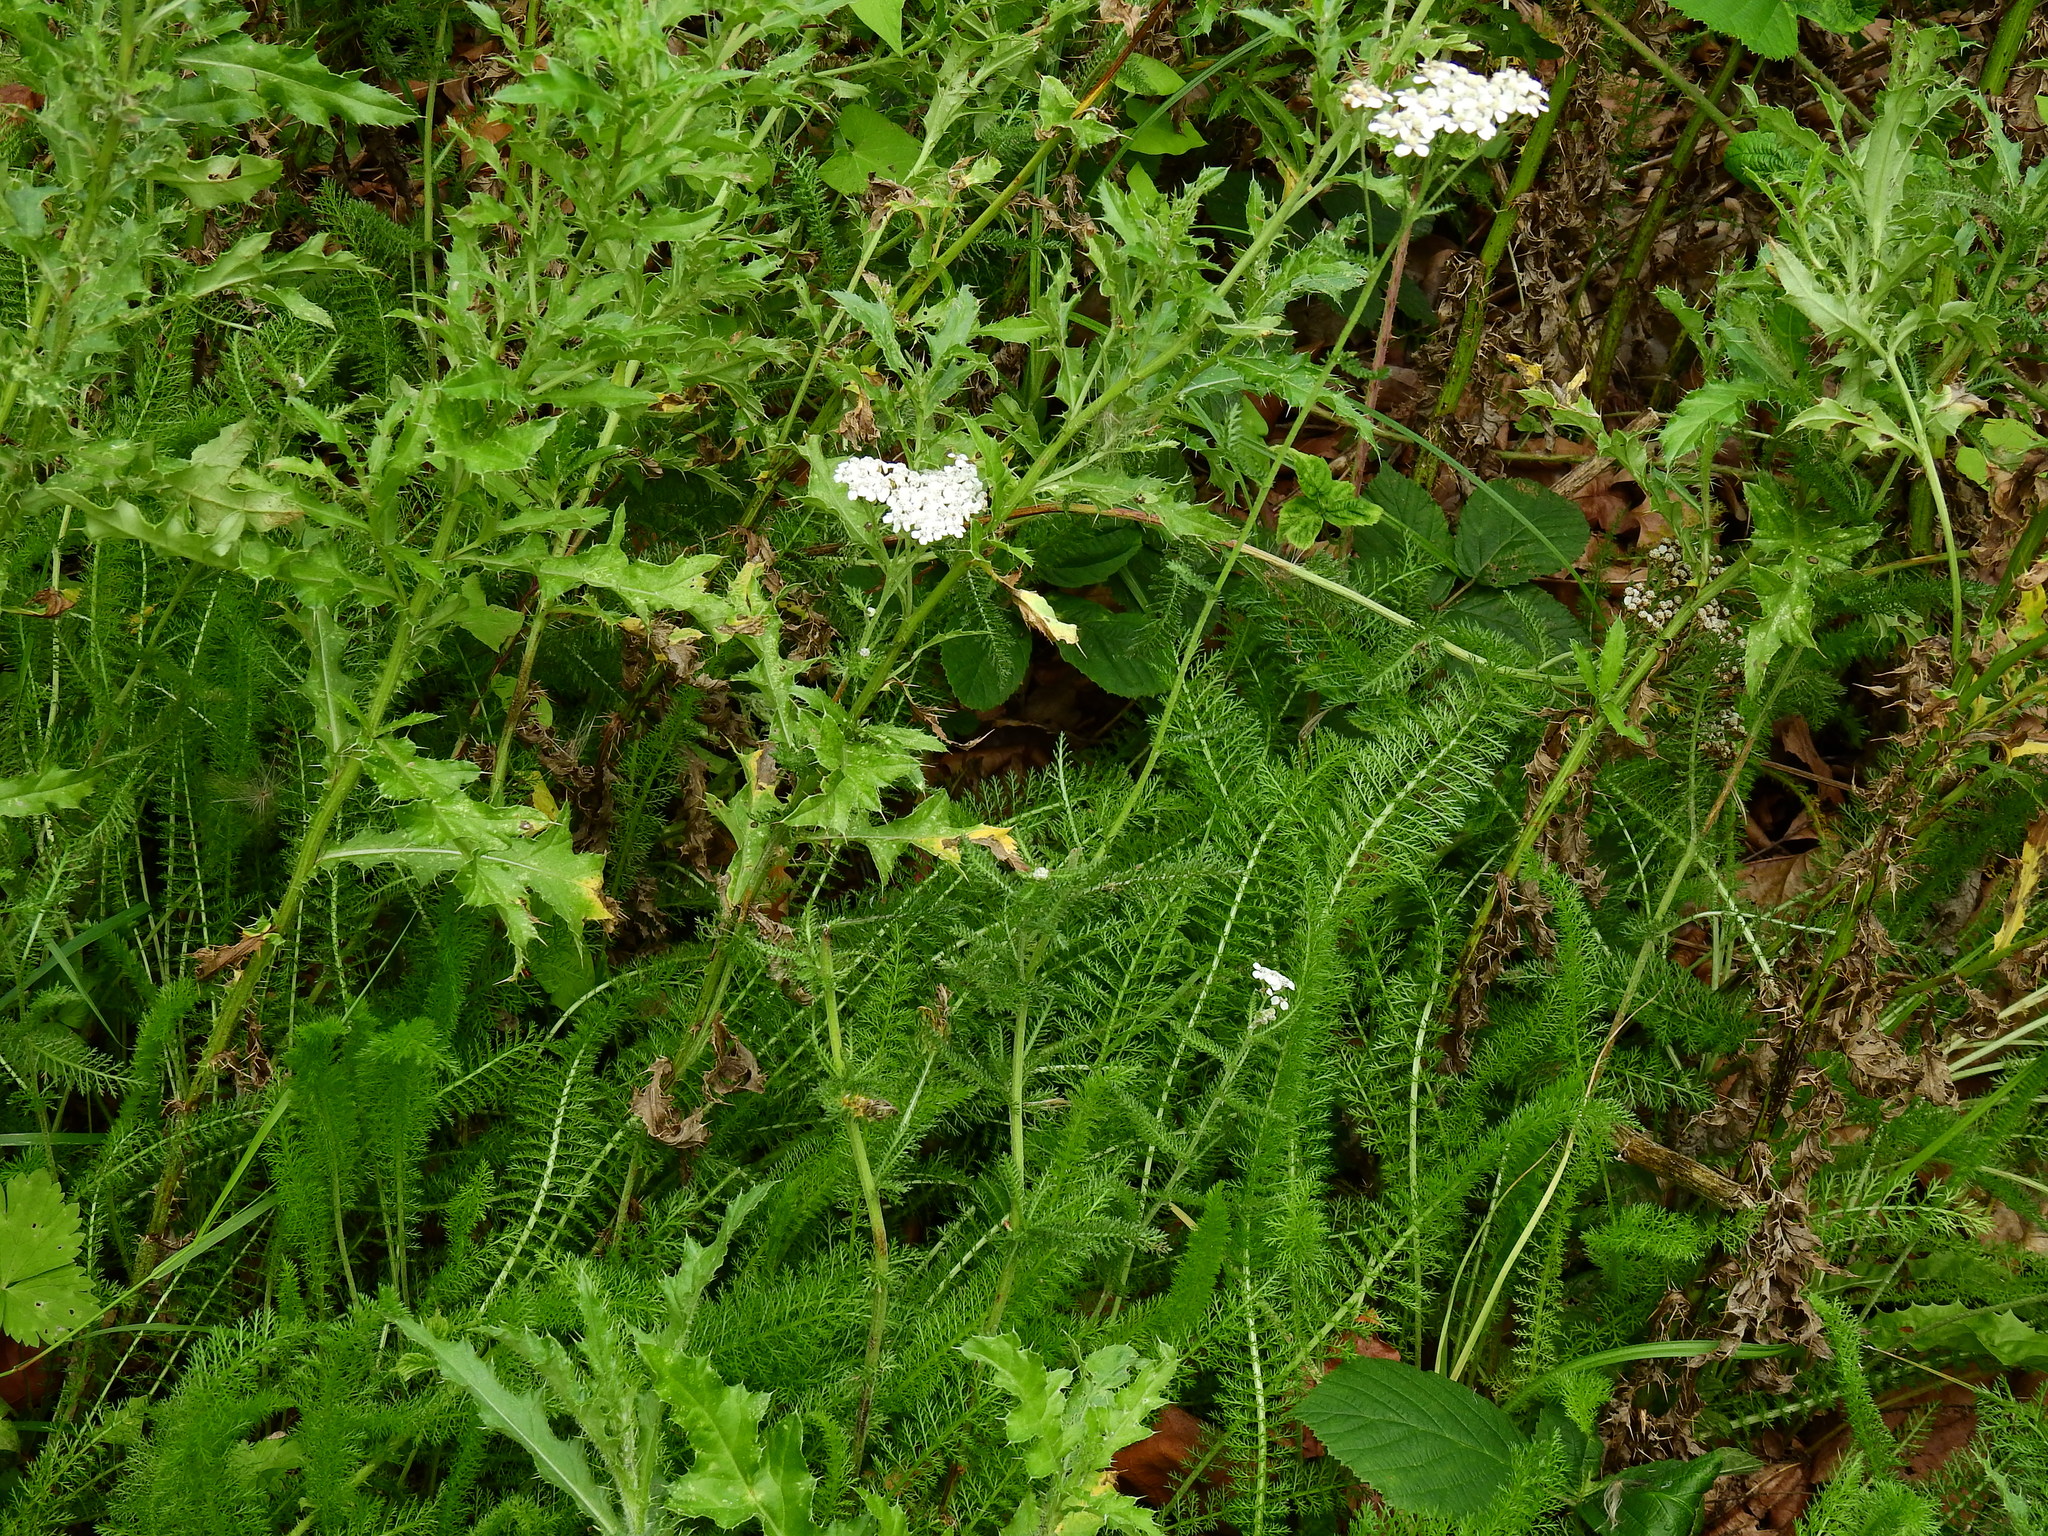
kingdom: Plantae
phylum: Tracheophyta
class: Magnoliopsida
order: Asterales
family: Asteraceae
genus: Achillea
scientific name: Achillea millefolium
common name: Yarrow
